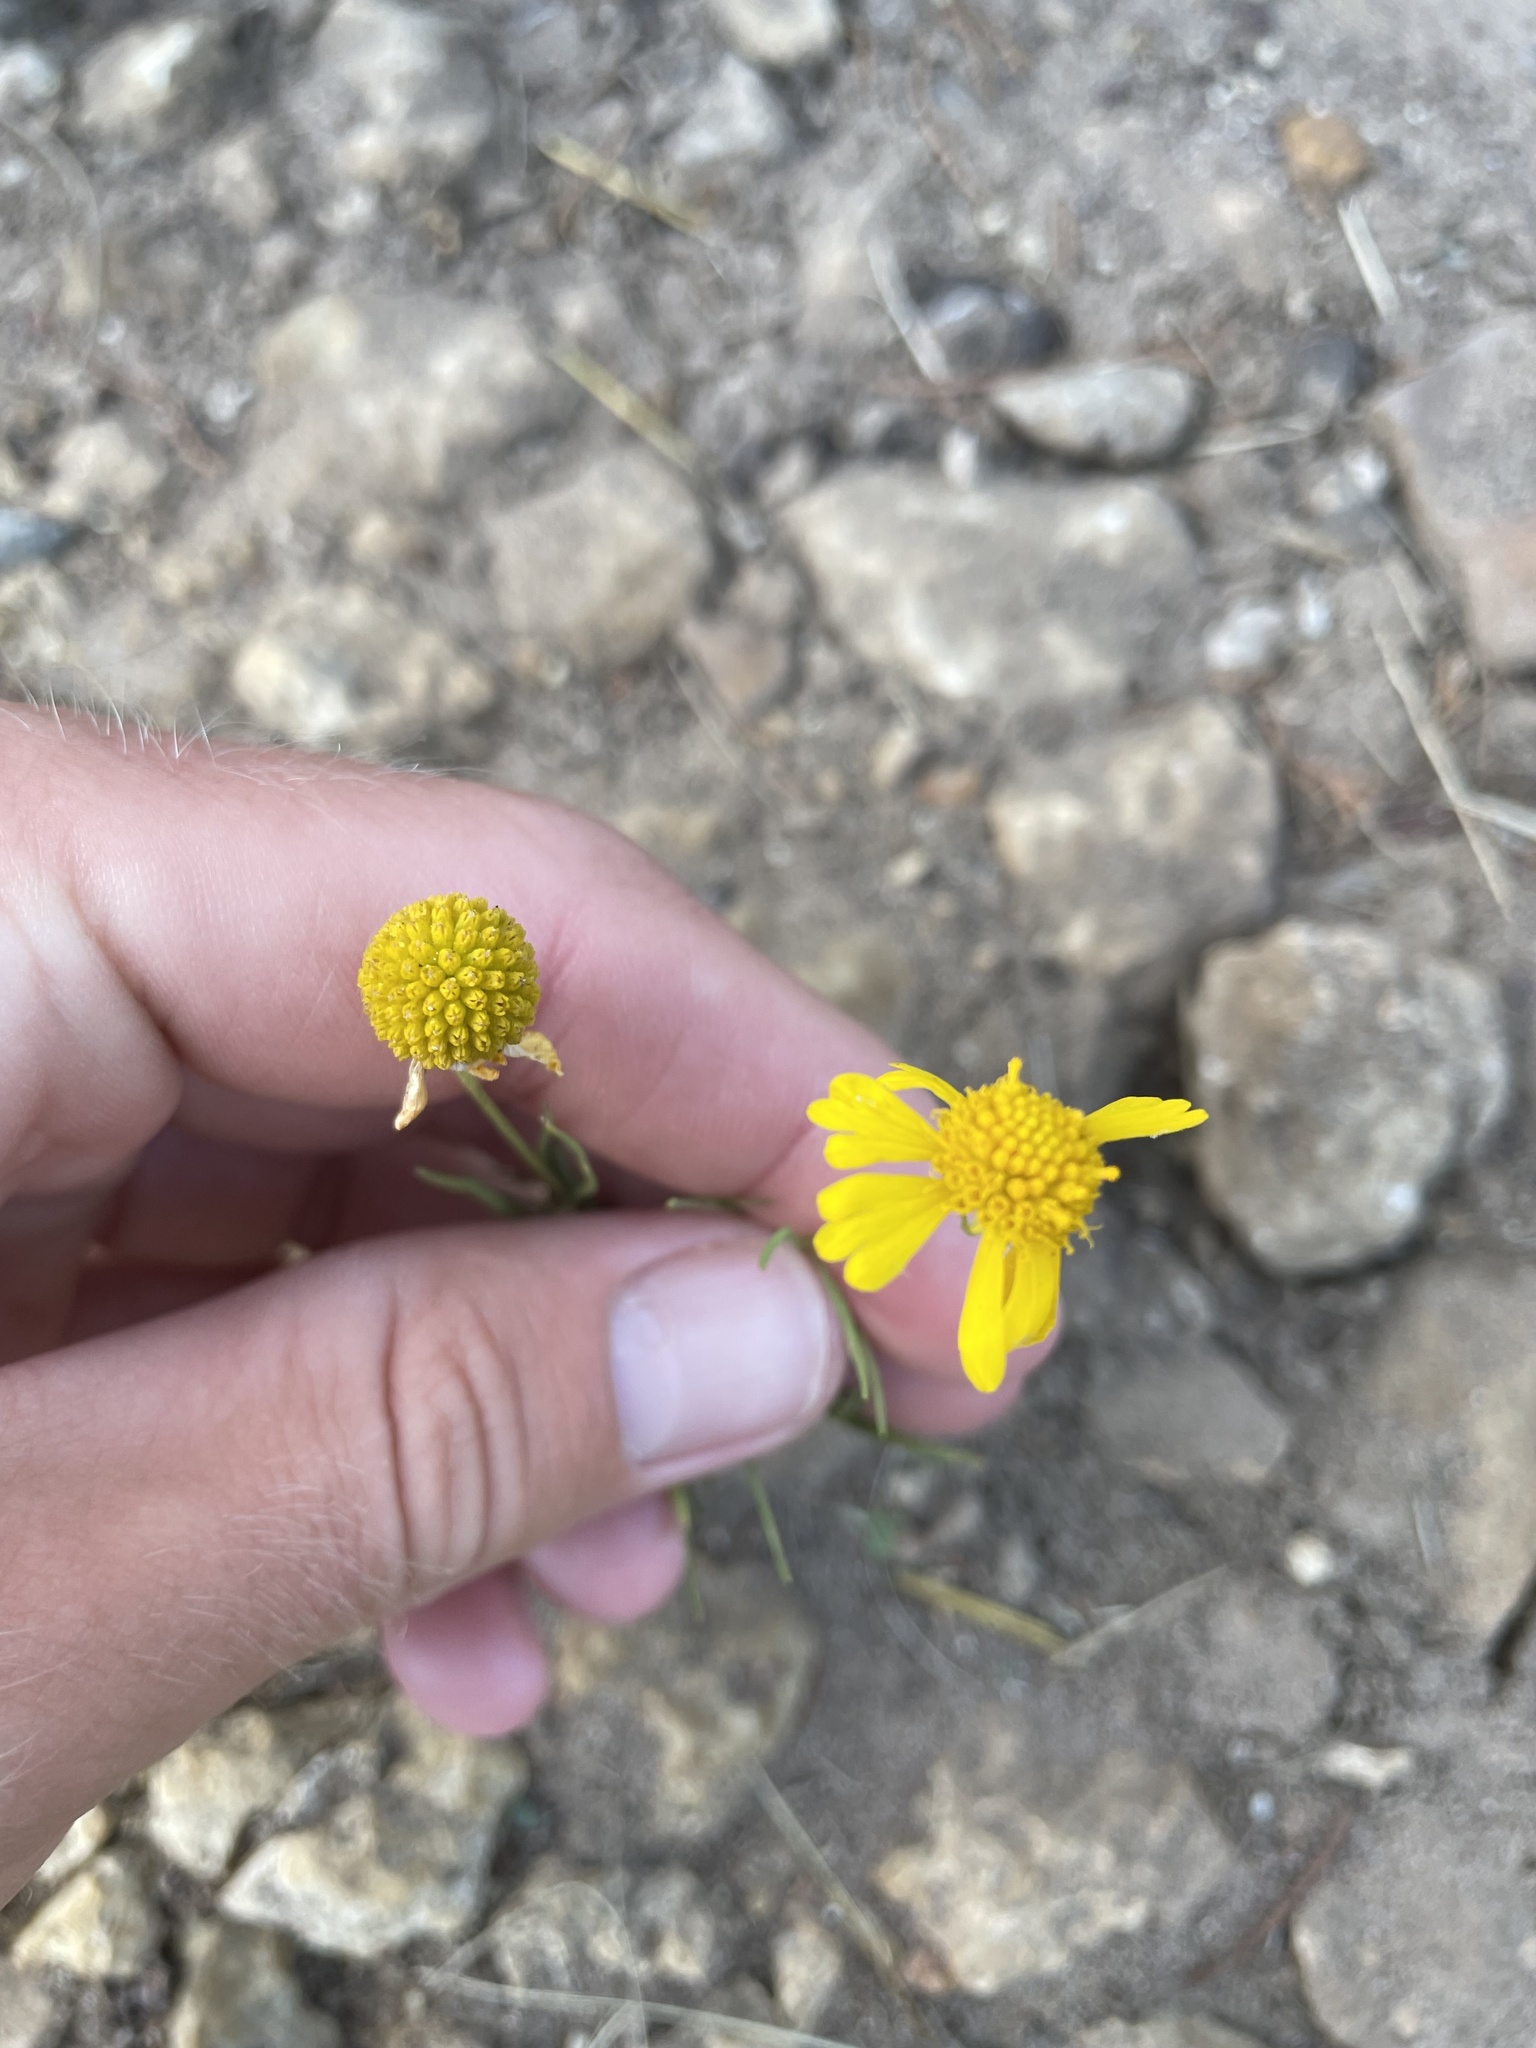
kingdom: Plantae
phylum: Tracheophyta
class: Magnoliopsida
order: Asterales
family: Asteraceae
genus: Helenium
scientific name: Helenium amarum
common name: Bitter sneezeweed
